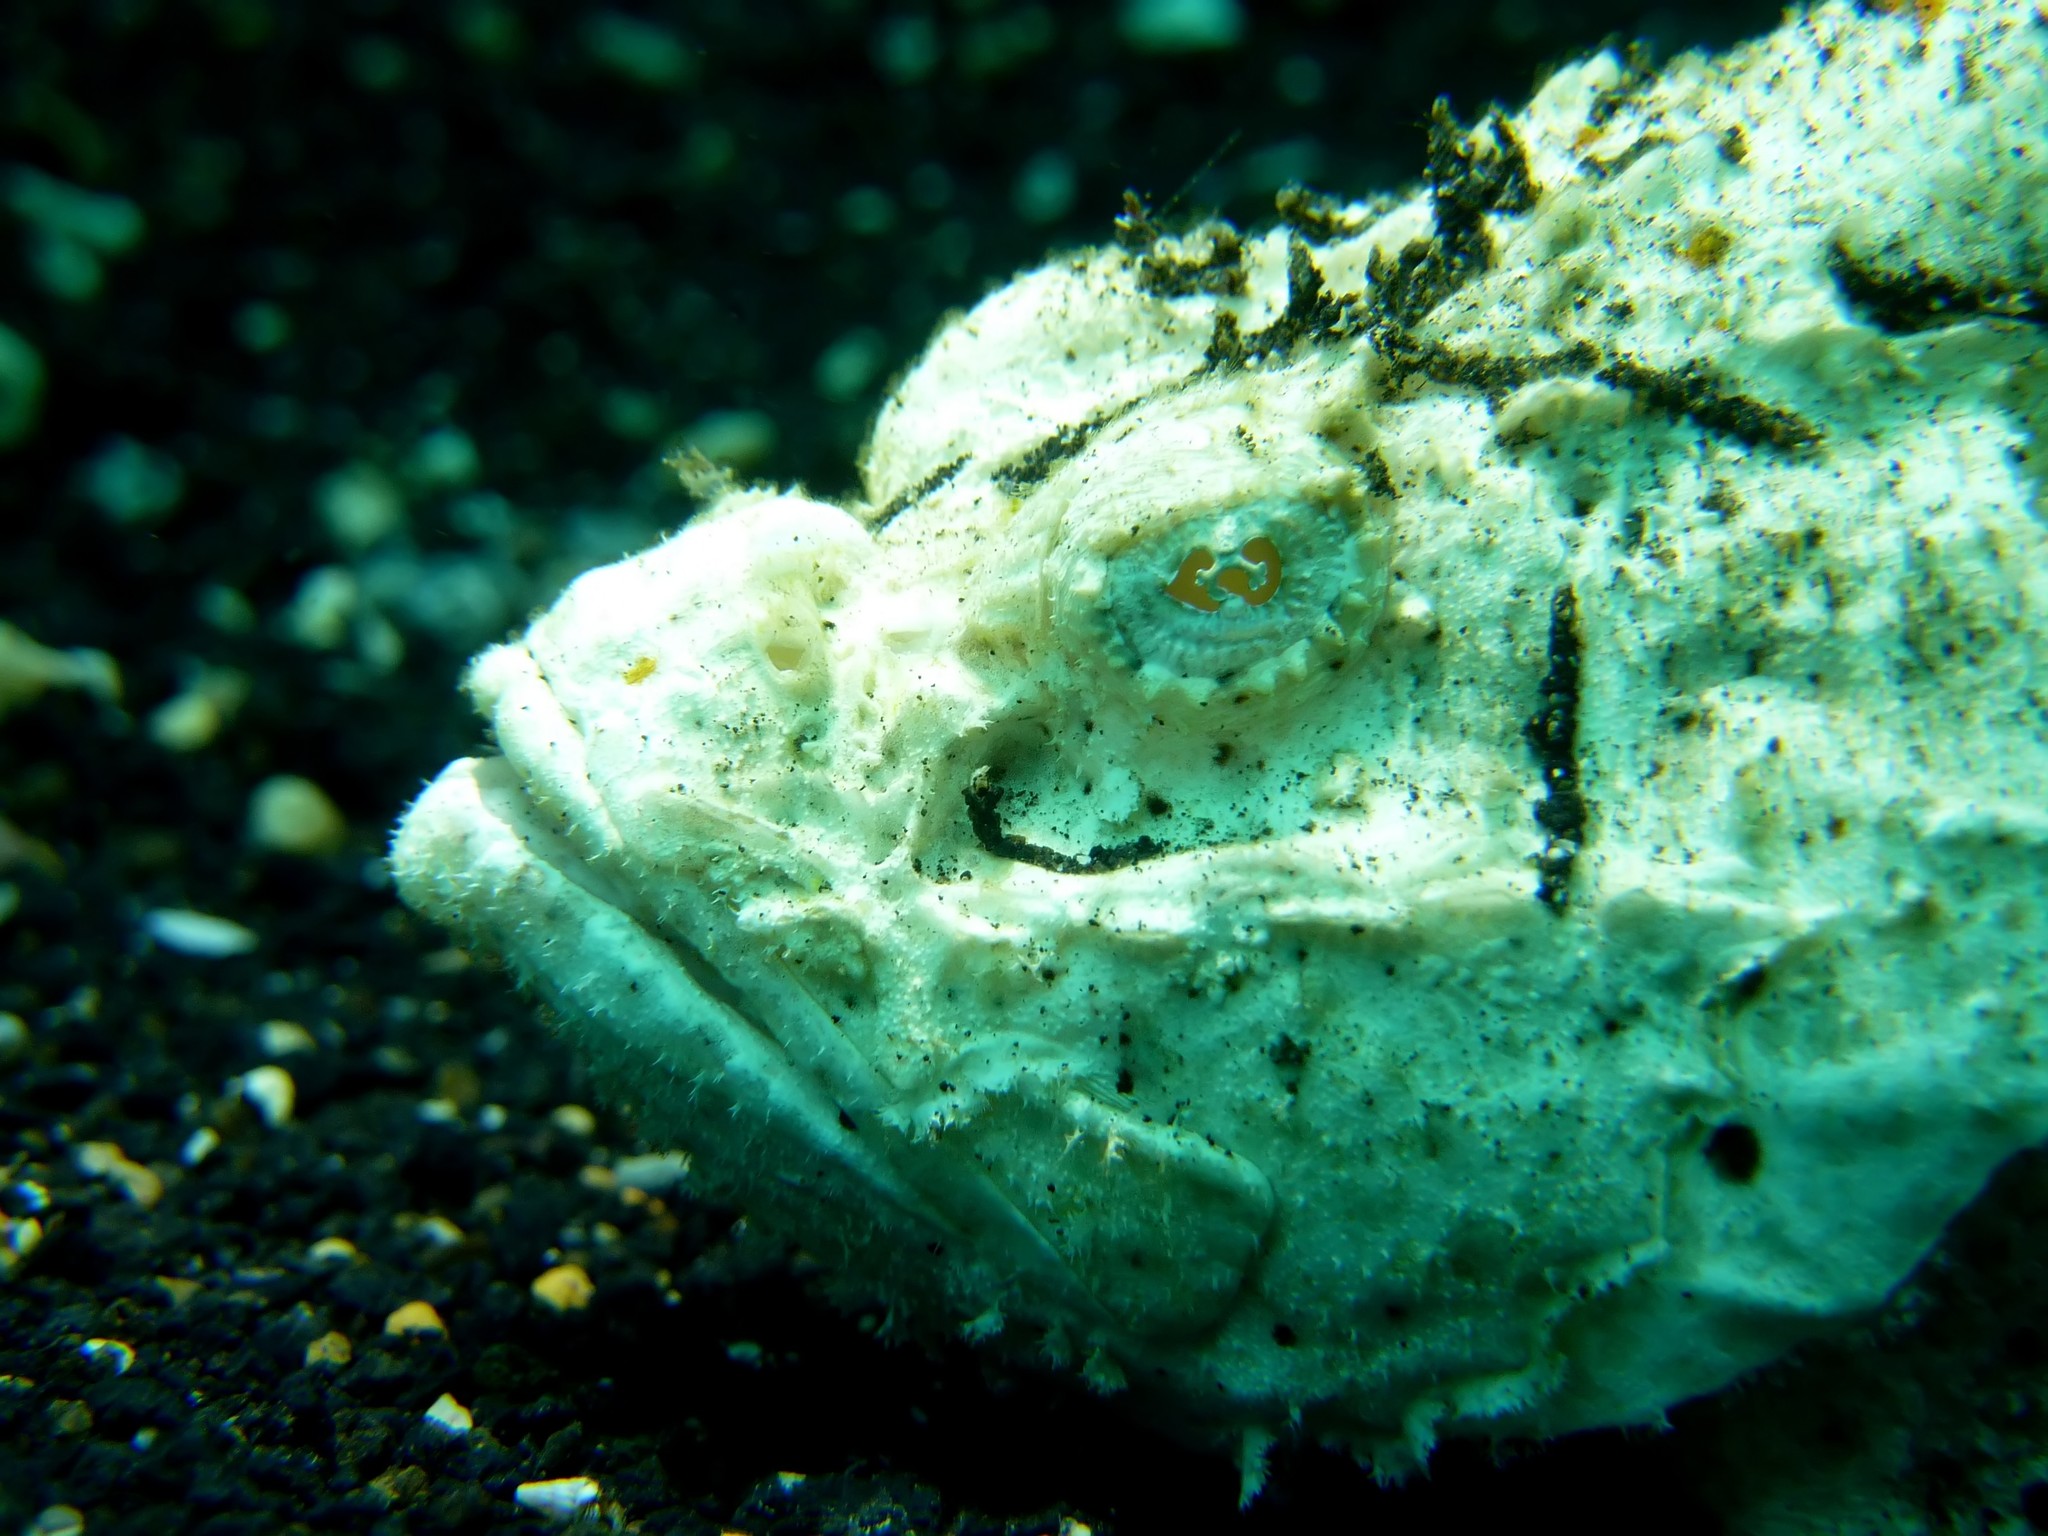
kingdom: Animalia
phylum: Chordata
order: Scorpaeniformes
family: Scorpaenidae
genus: Scorpaenopsis
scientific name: Scorpaenopsis diabolus
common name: False stonefish
